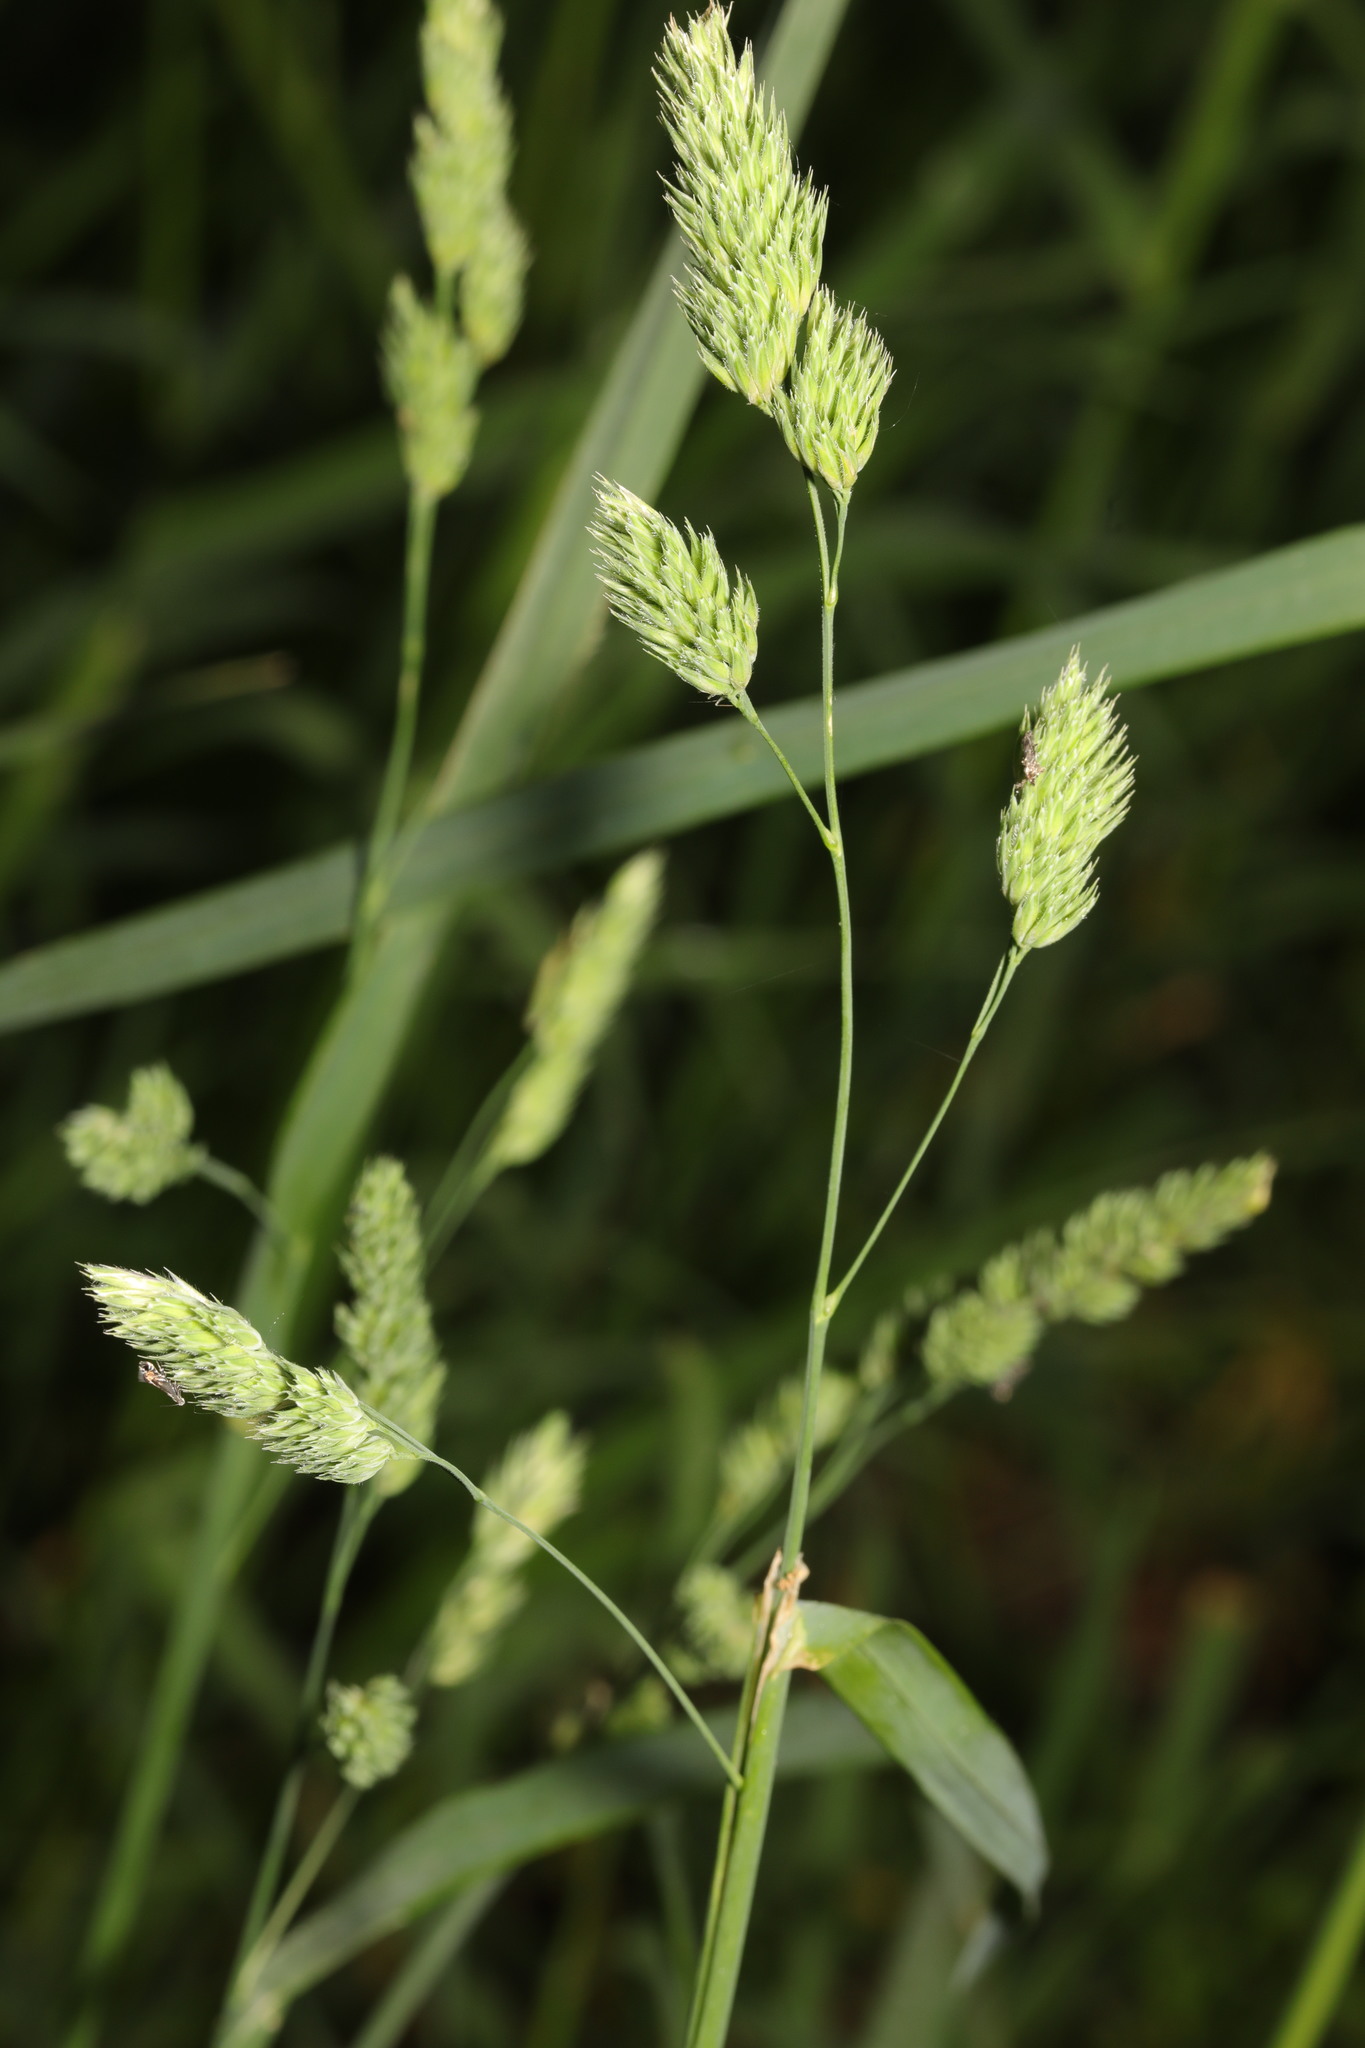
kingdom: Plantae
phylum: Tracheophyta
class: Liliopsida
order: Poales
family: Poaceae
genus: Dactylis
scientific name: Dactylis glomerata
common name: Orchardgrass
